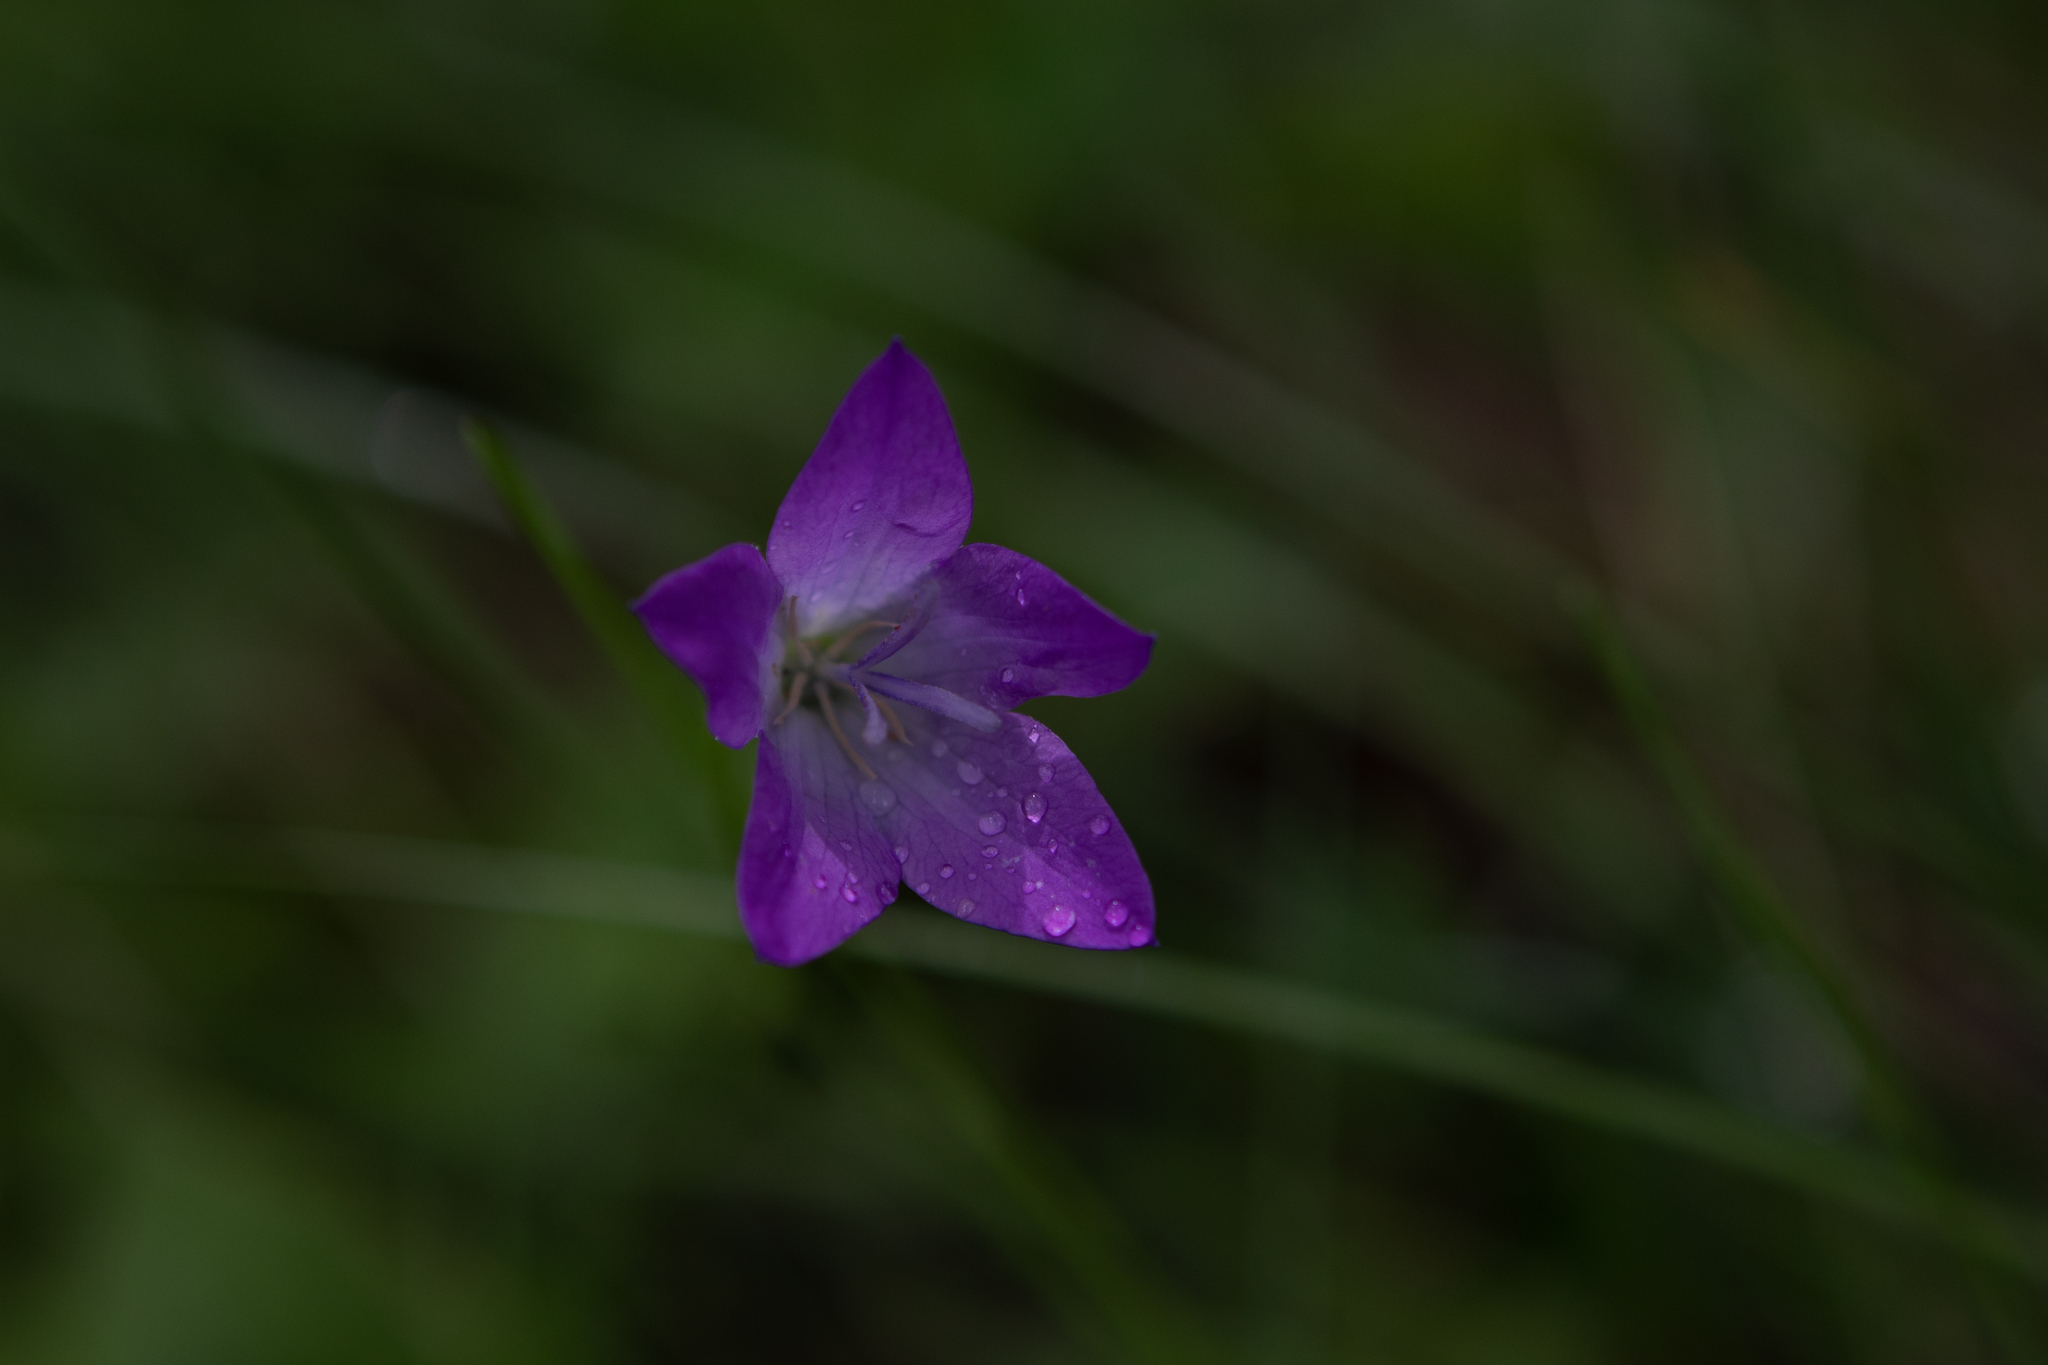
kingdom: Plantae
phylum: Tracheophyta
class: Magnoliopsida
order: Asterales
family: Campanulaceae
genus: Campanula
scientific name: Campanula stevenii
